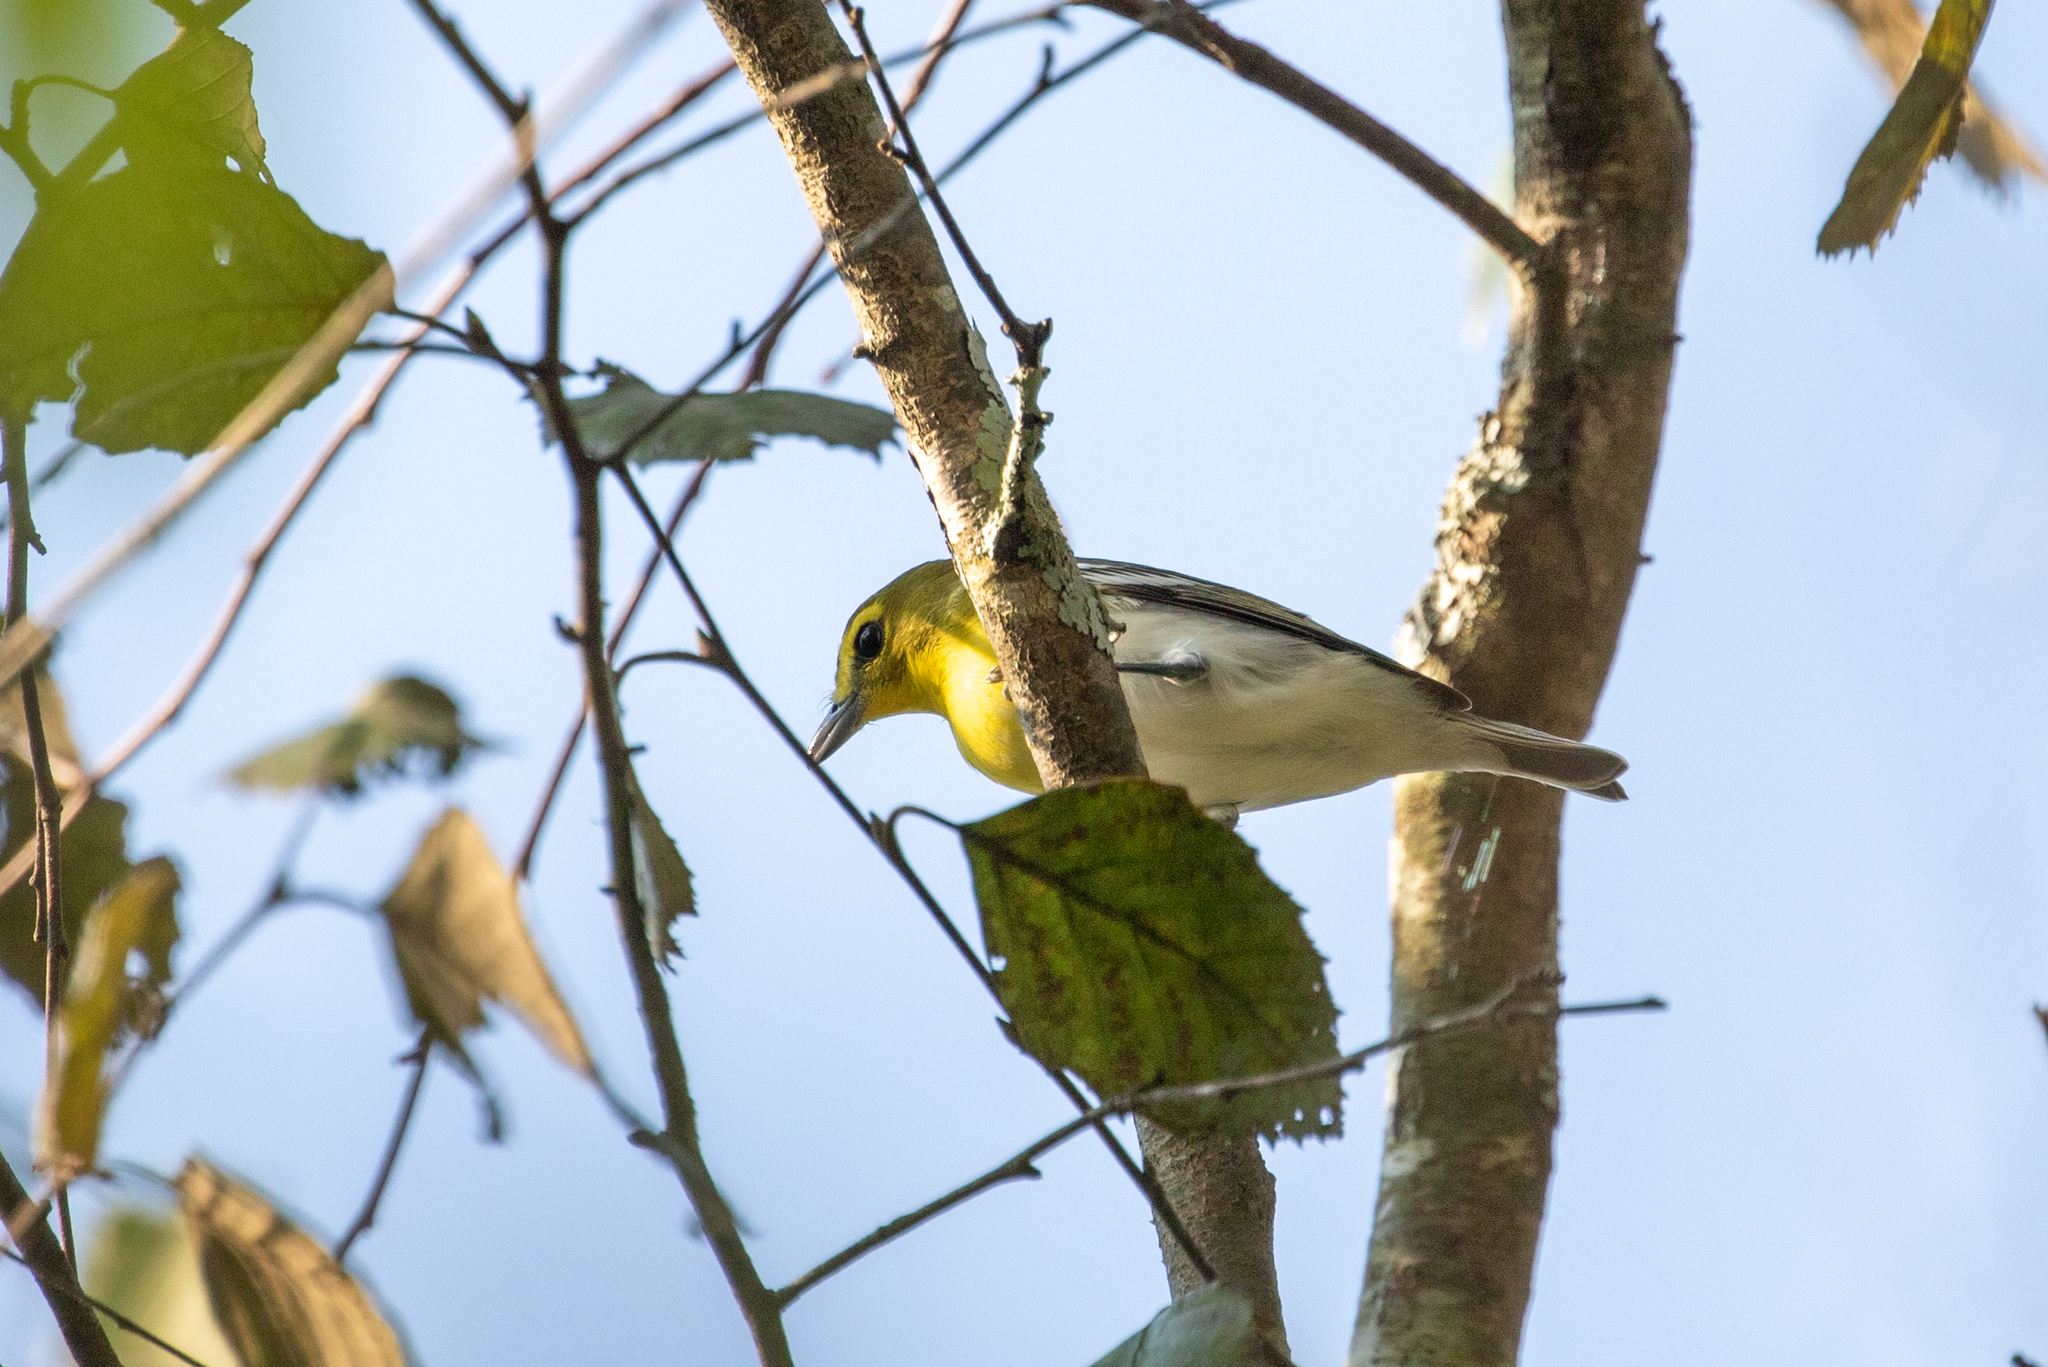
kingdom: Animalia
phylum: Chordata
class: Aves
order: Passeriformes
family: Vireonidae
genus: Vireo
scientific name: Vireo flavifrons
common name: Yellow-throated vireo
